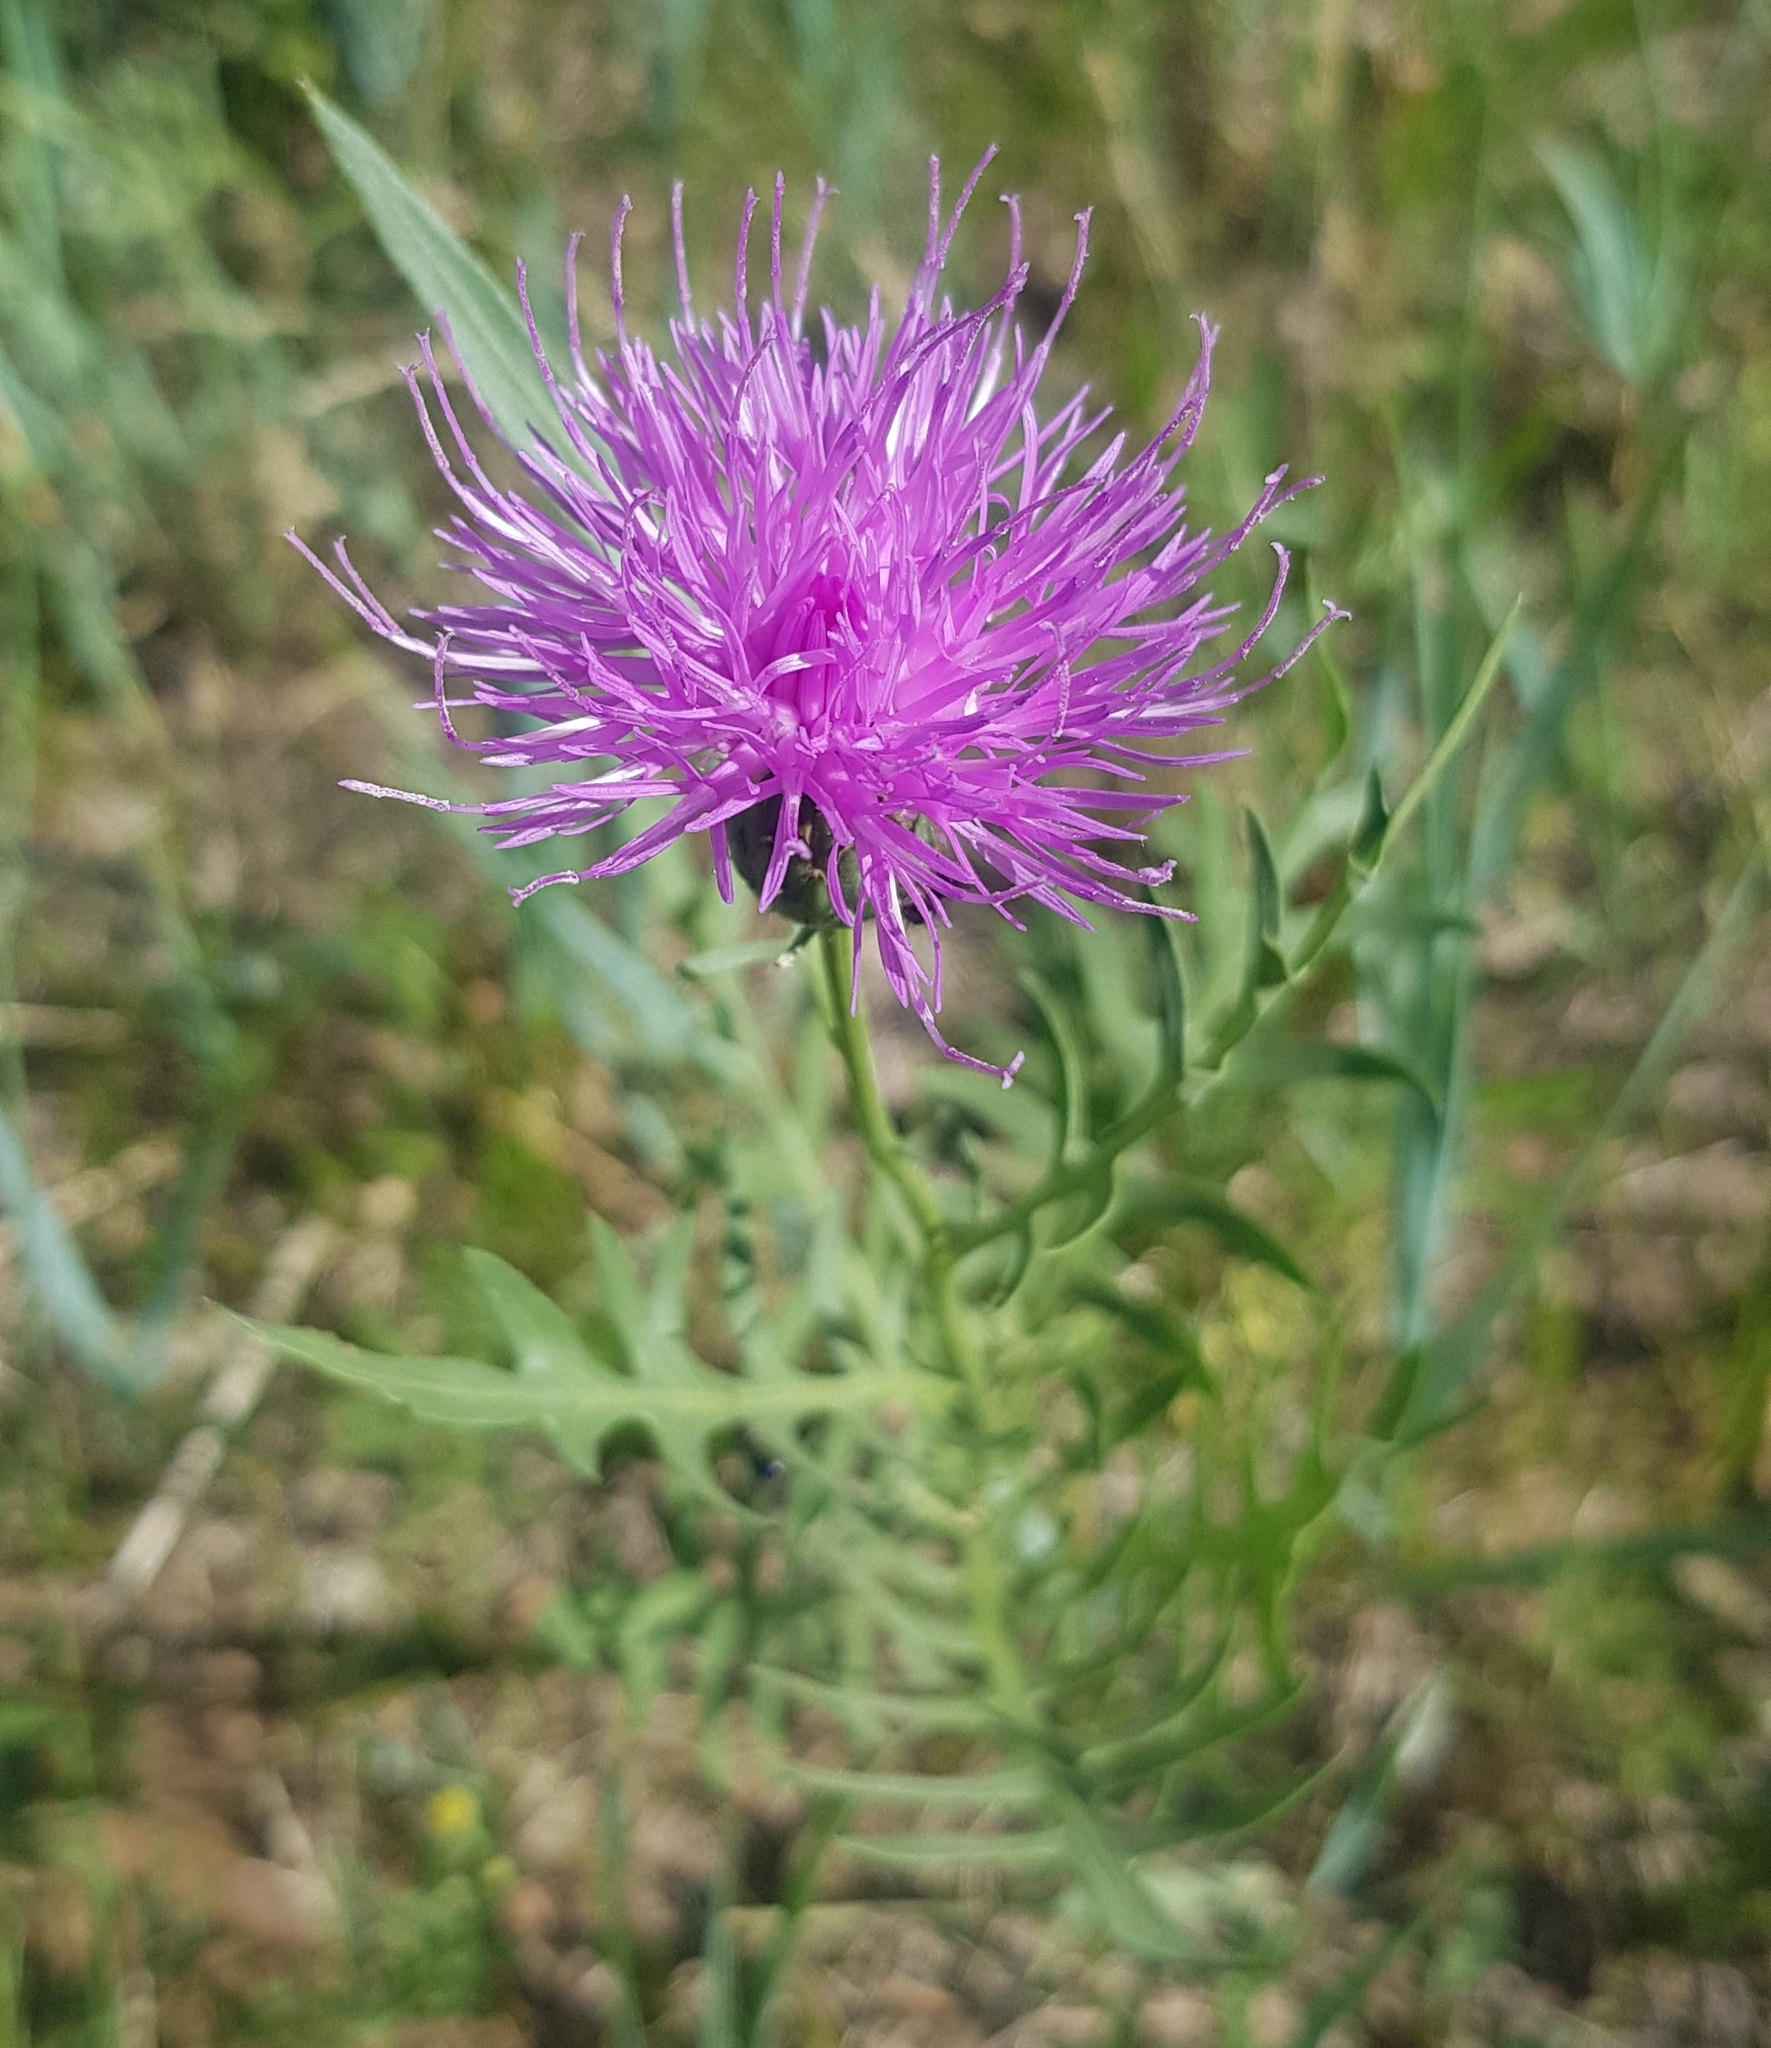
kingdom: Plantae
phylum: Tracheophyta
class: Magnoliopsida
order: Asterales
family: Asteraceae
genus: Klasea
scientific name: Klasea centauroides
